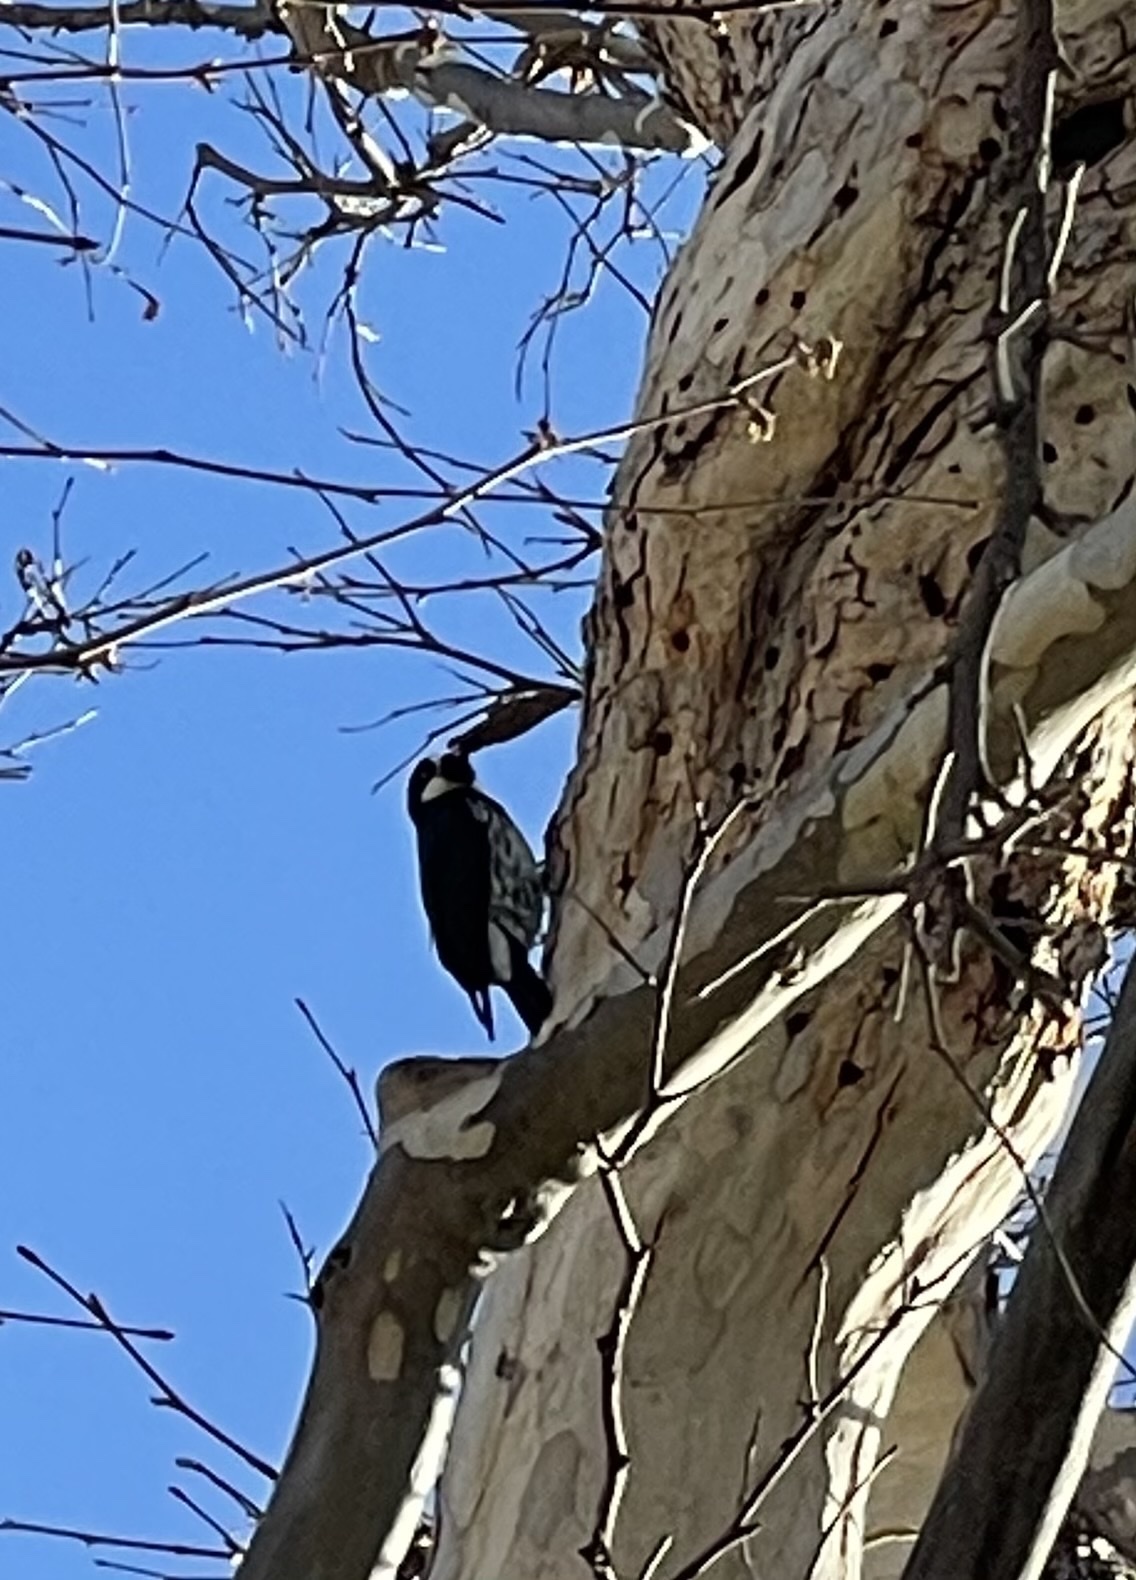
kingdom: Animalia
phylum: Chordata
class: Aves
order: Piciformes
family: Picidae
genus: Melanerpes
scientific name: Melanerpes formicivorus
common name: Acorn woodpecker
